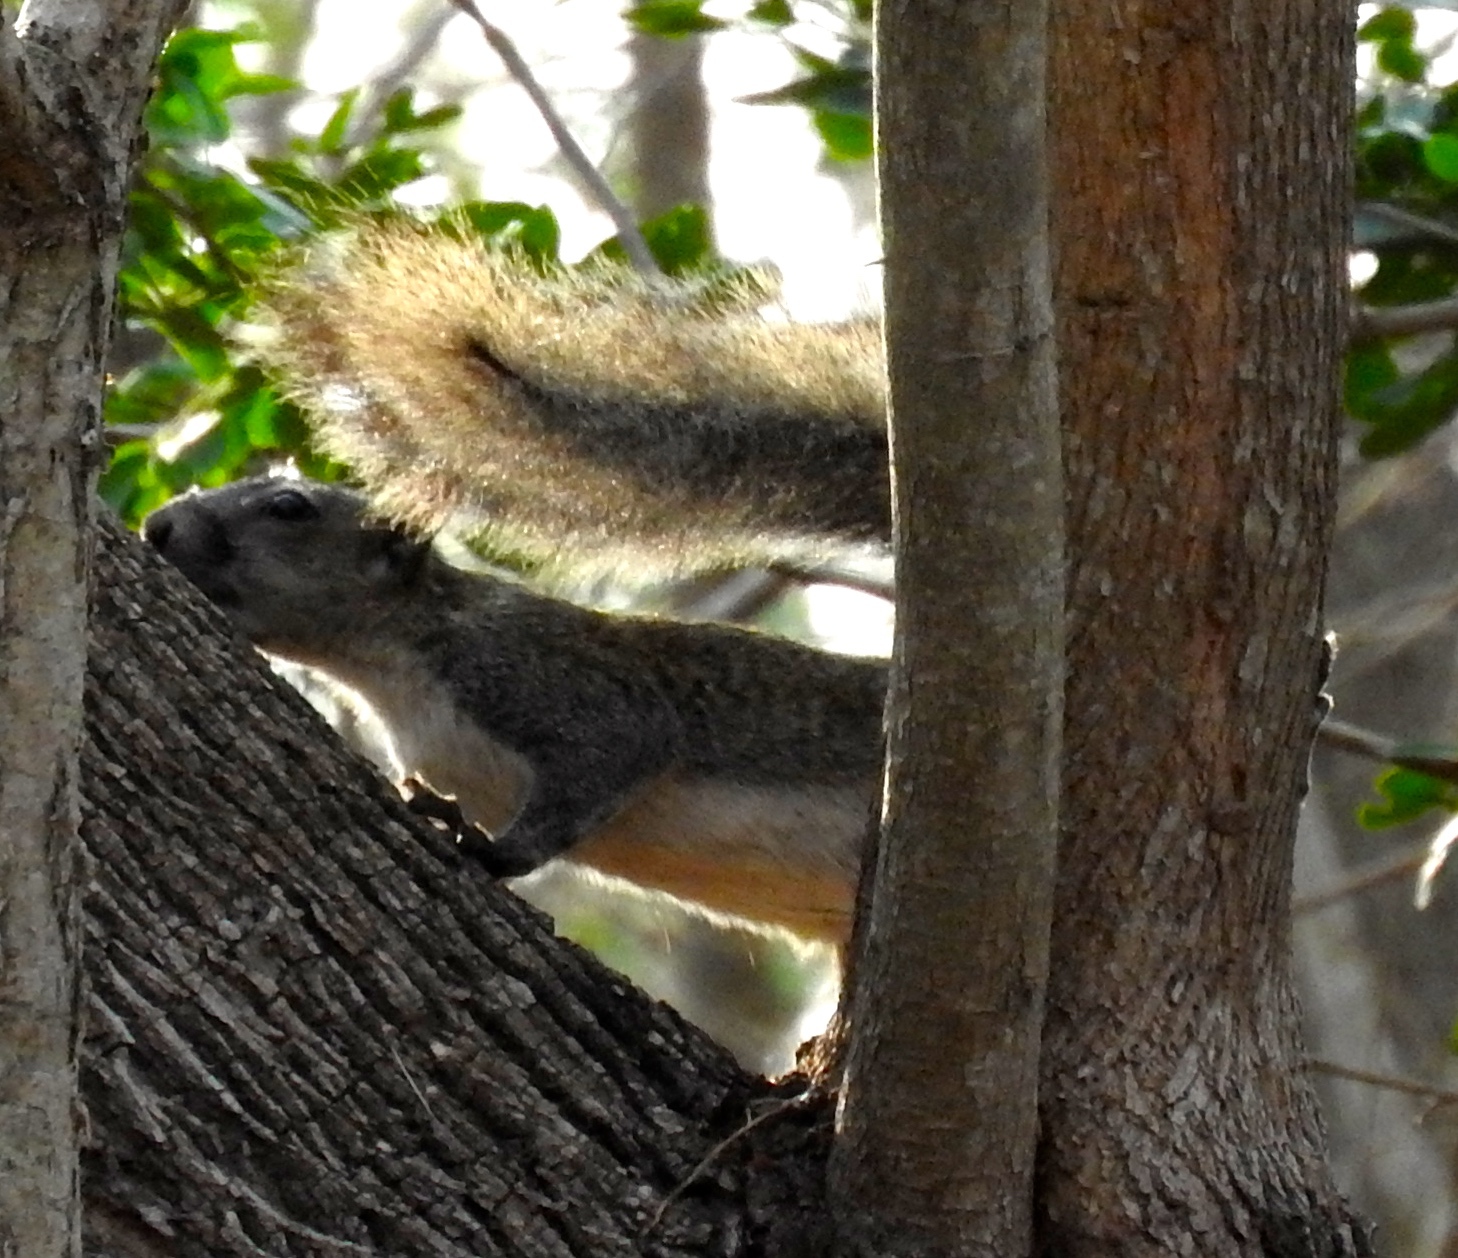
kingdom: Animalia
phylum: Chordata
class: Mammalia
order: Rodentia
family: Sciuridae
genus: Sciurus
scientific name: Sciurus colliaei
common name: Collie's squirrel
